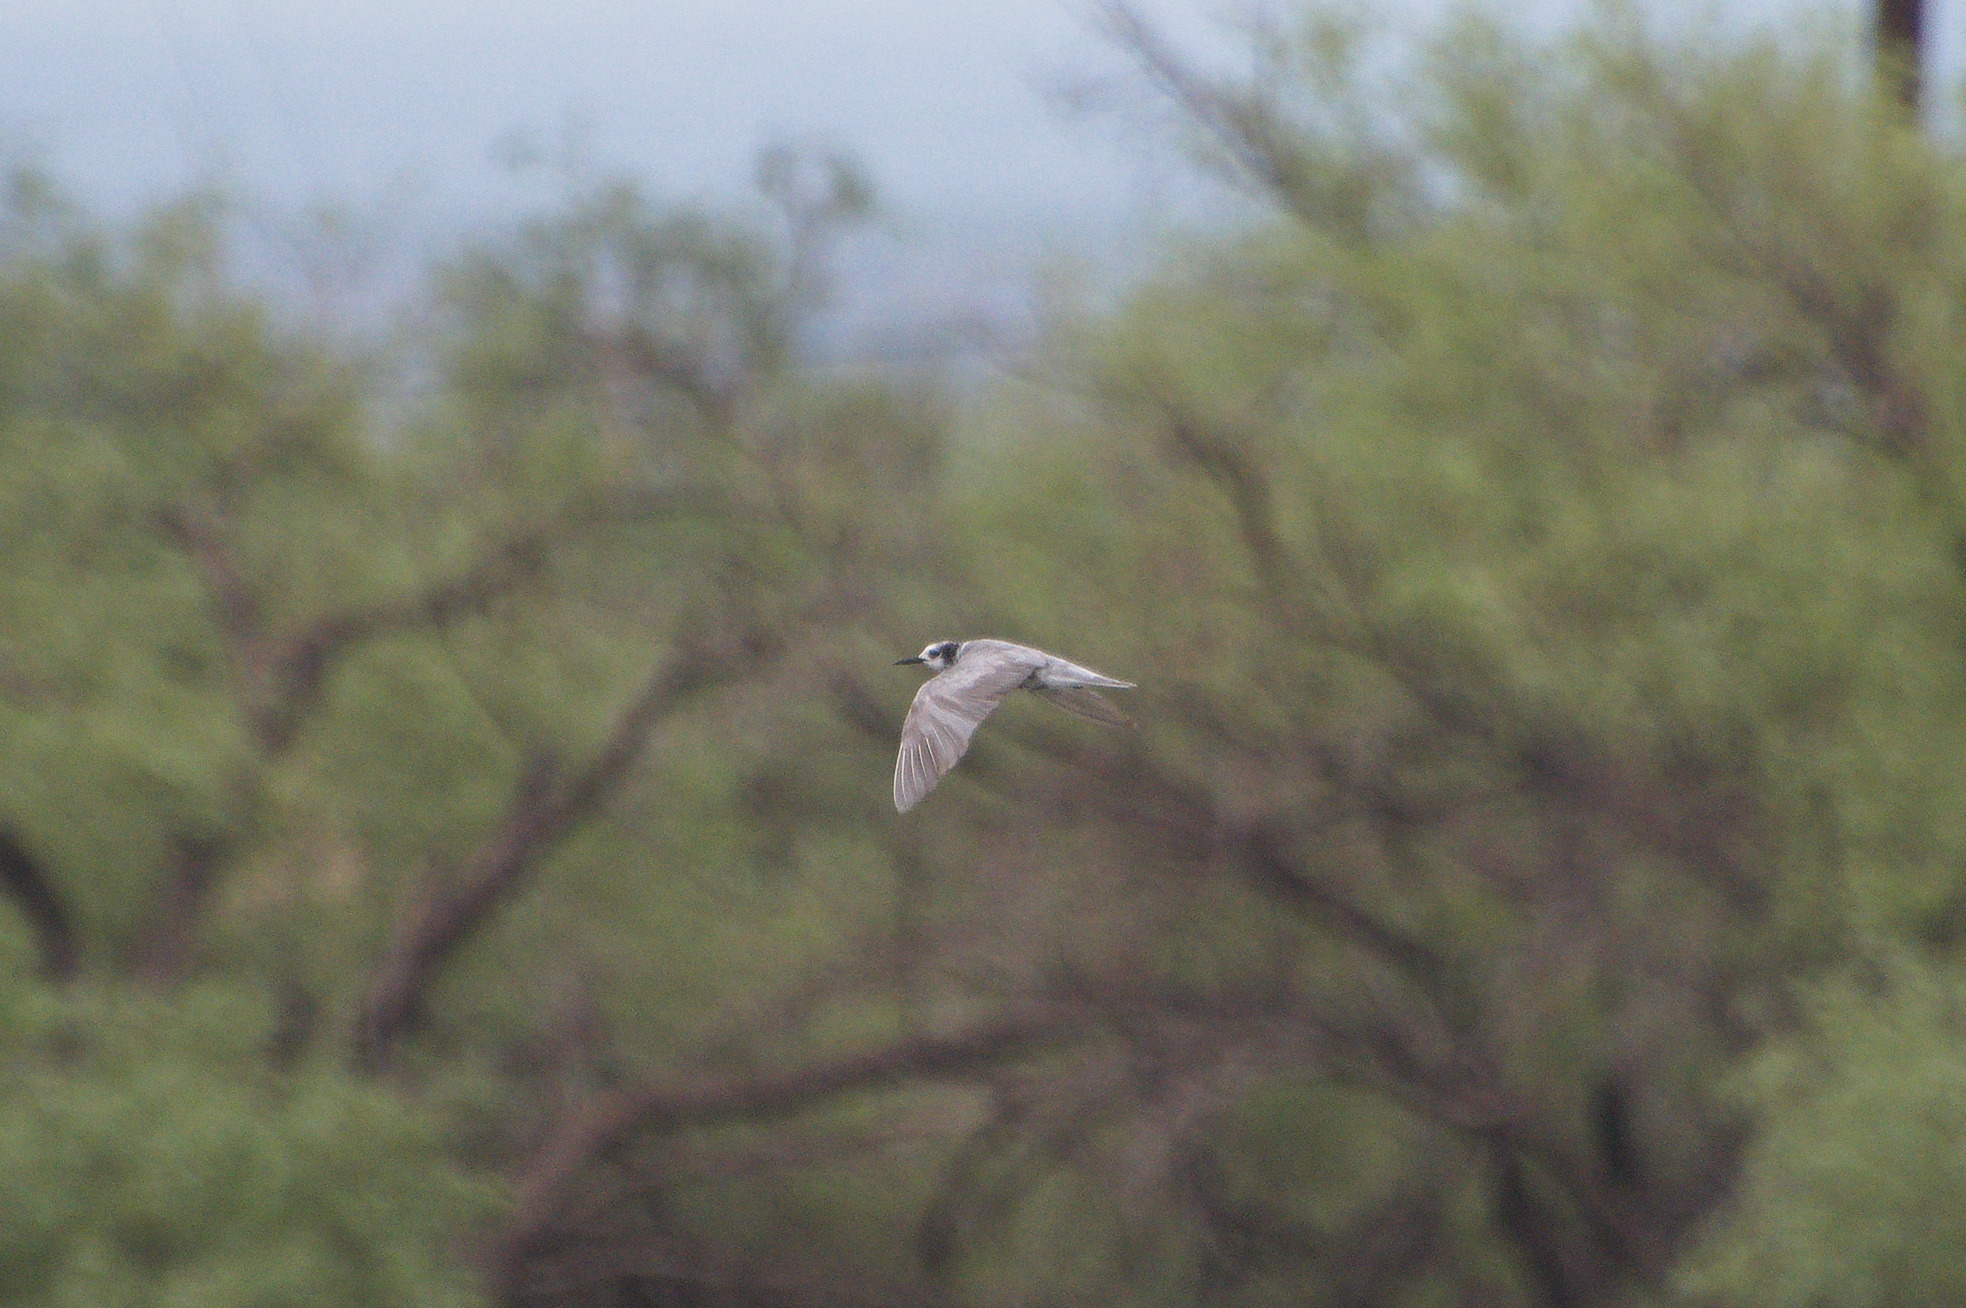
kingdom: Animalia
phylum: Chordata
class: Aves
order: Charadriiformes
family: Laridae
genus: Chlidonias
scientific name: Chlidonias niger
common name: Black tern
